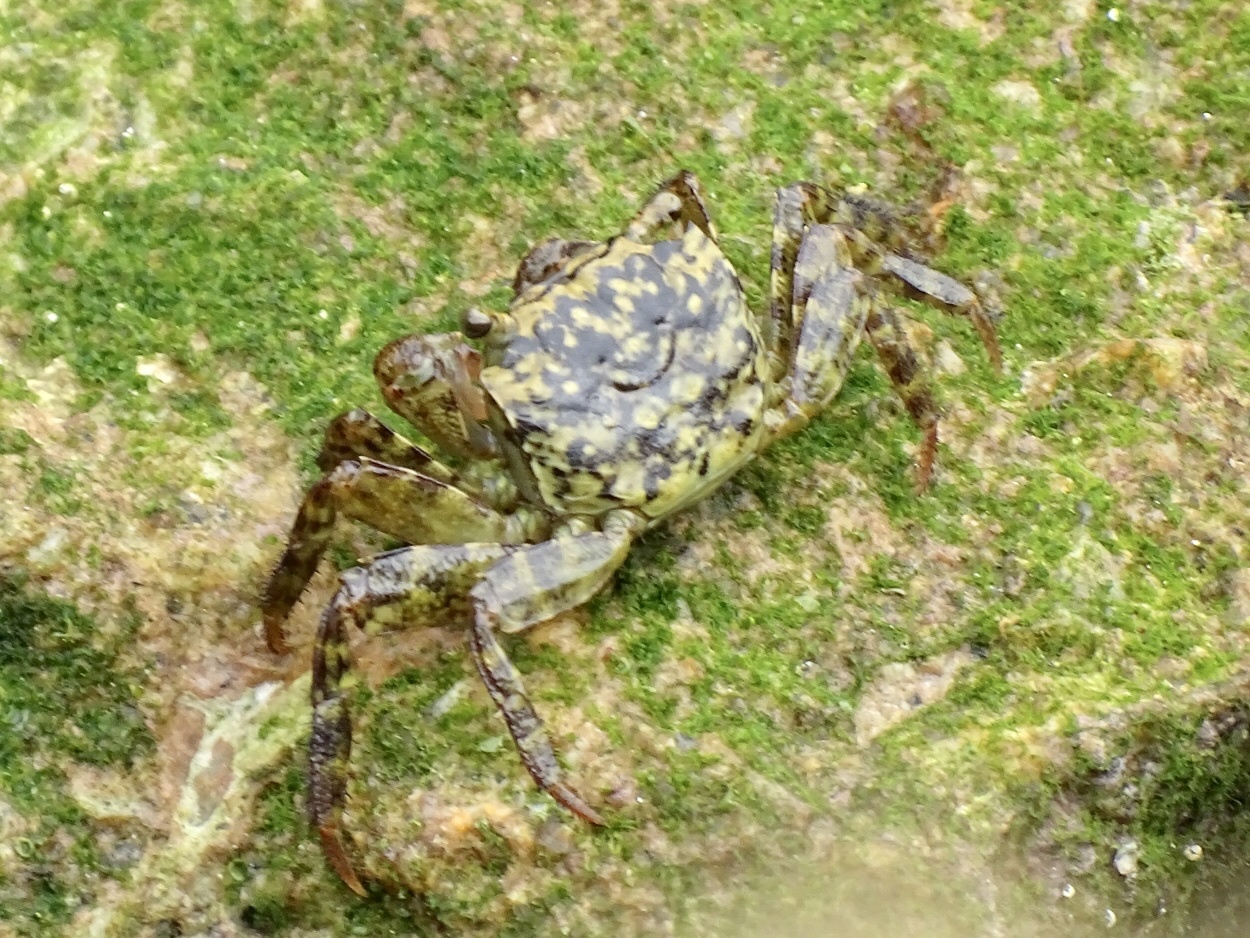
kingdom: Animalia
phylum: Arthropoda
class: Malacostraca
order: Decapoda
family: Sesarmidae
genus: Parasesarma
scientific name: Parasesarma pictum
